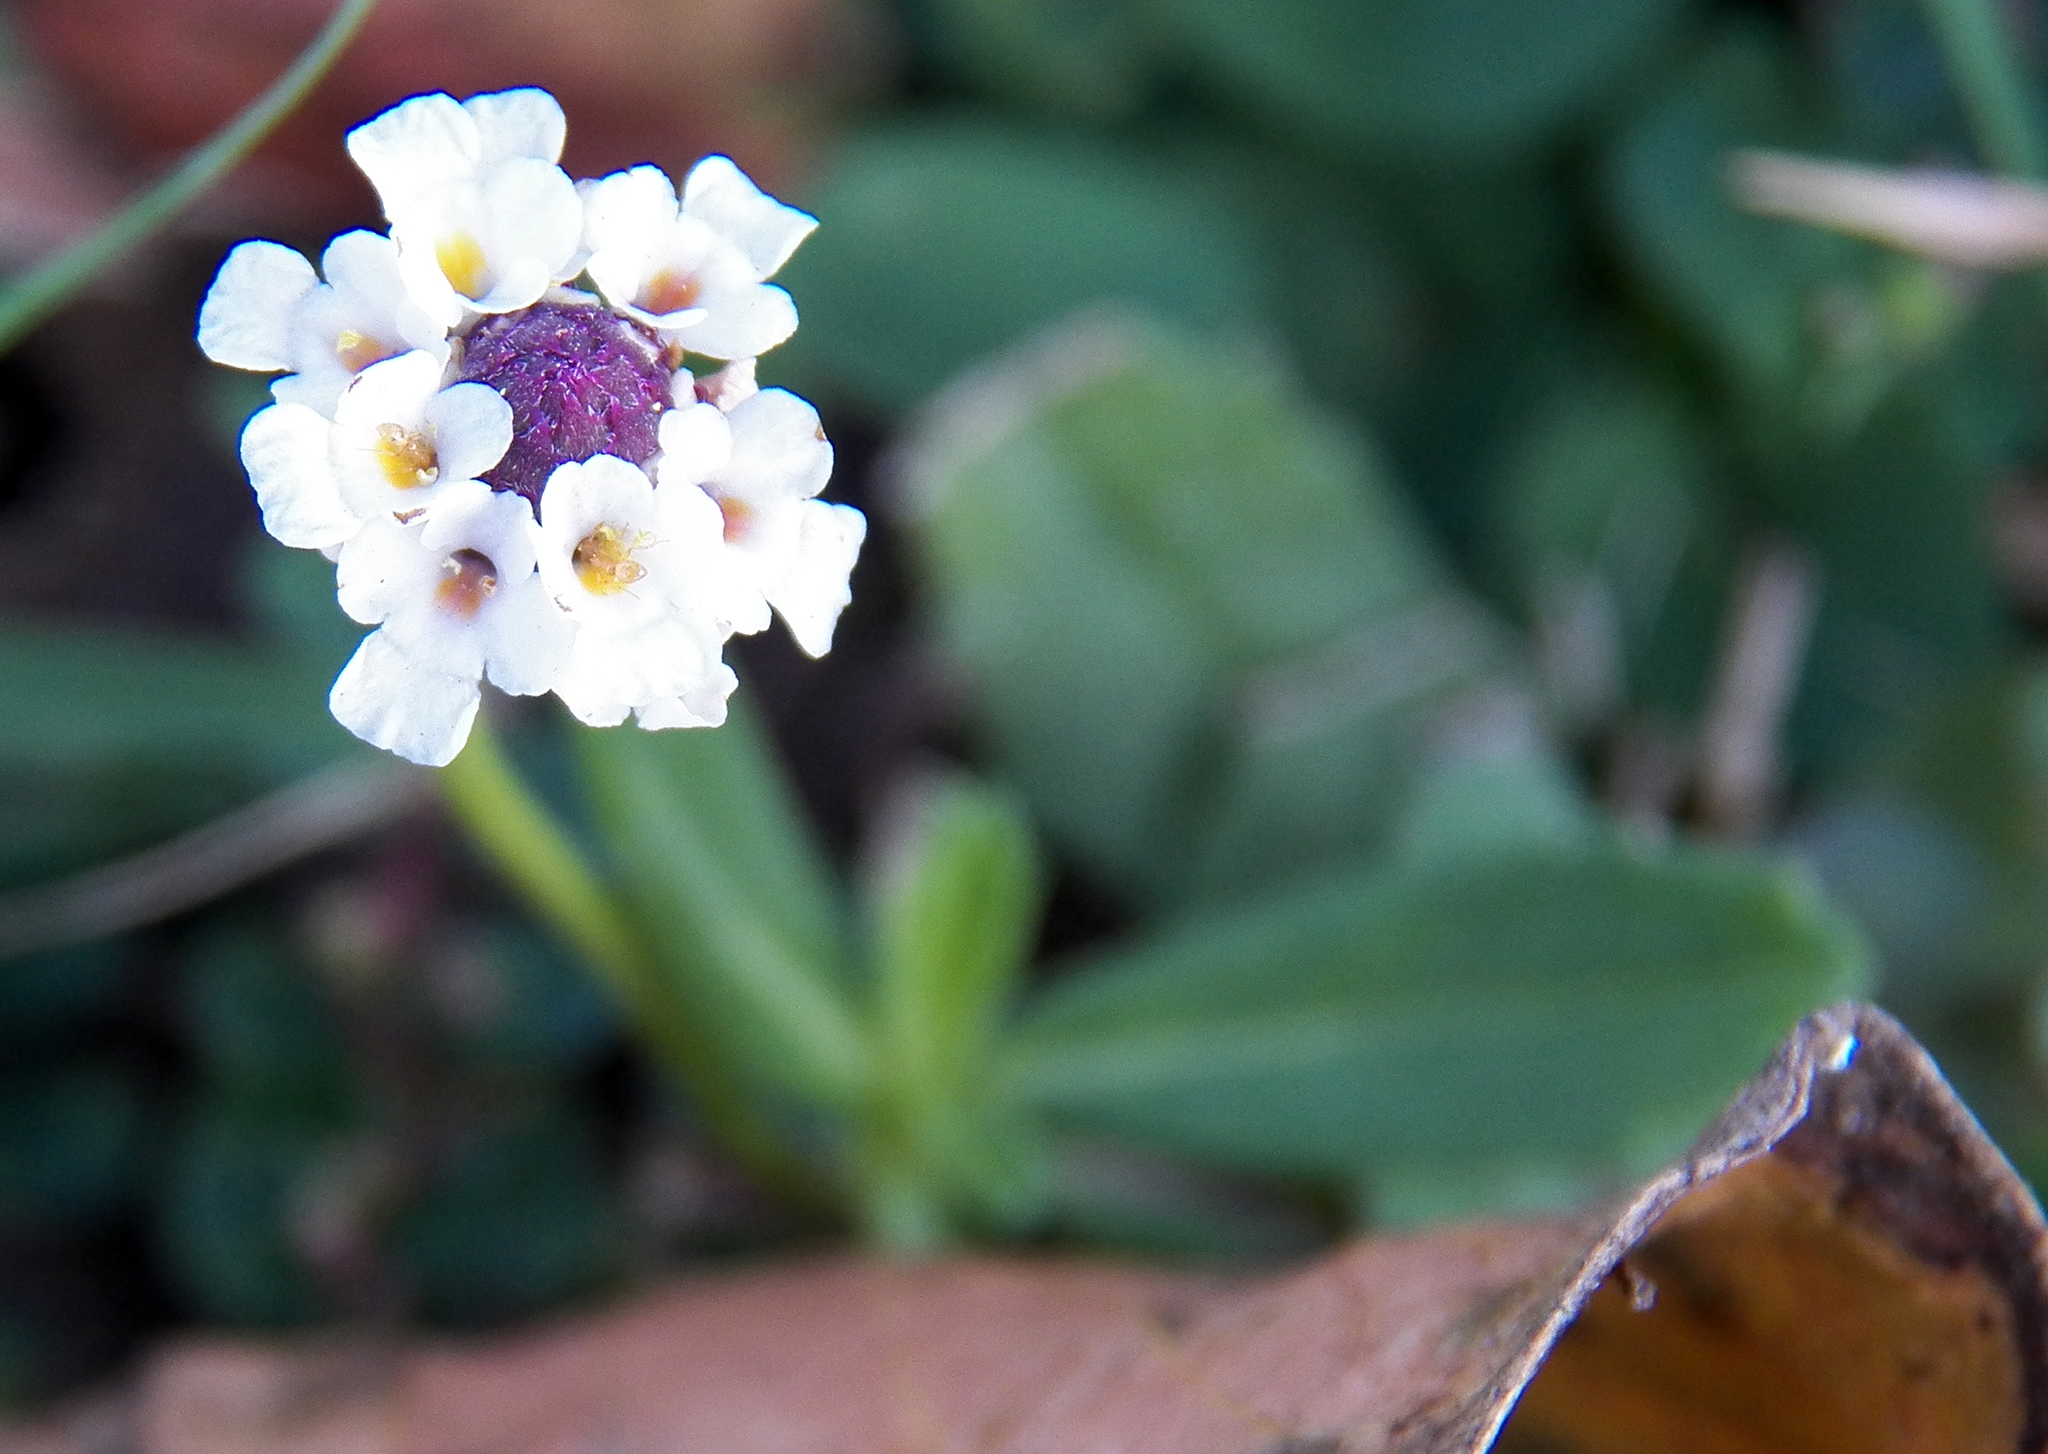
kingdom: Plantae
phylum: Tracheophyta
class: Magnoliopsida
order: Lamiales
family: Verbenaceae
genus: Phyla
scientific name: Phyla nodiflora
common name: Frogfruit
